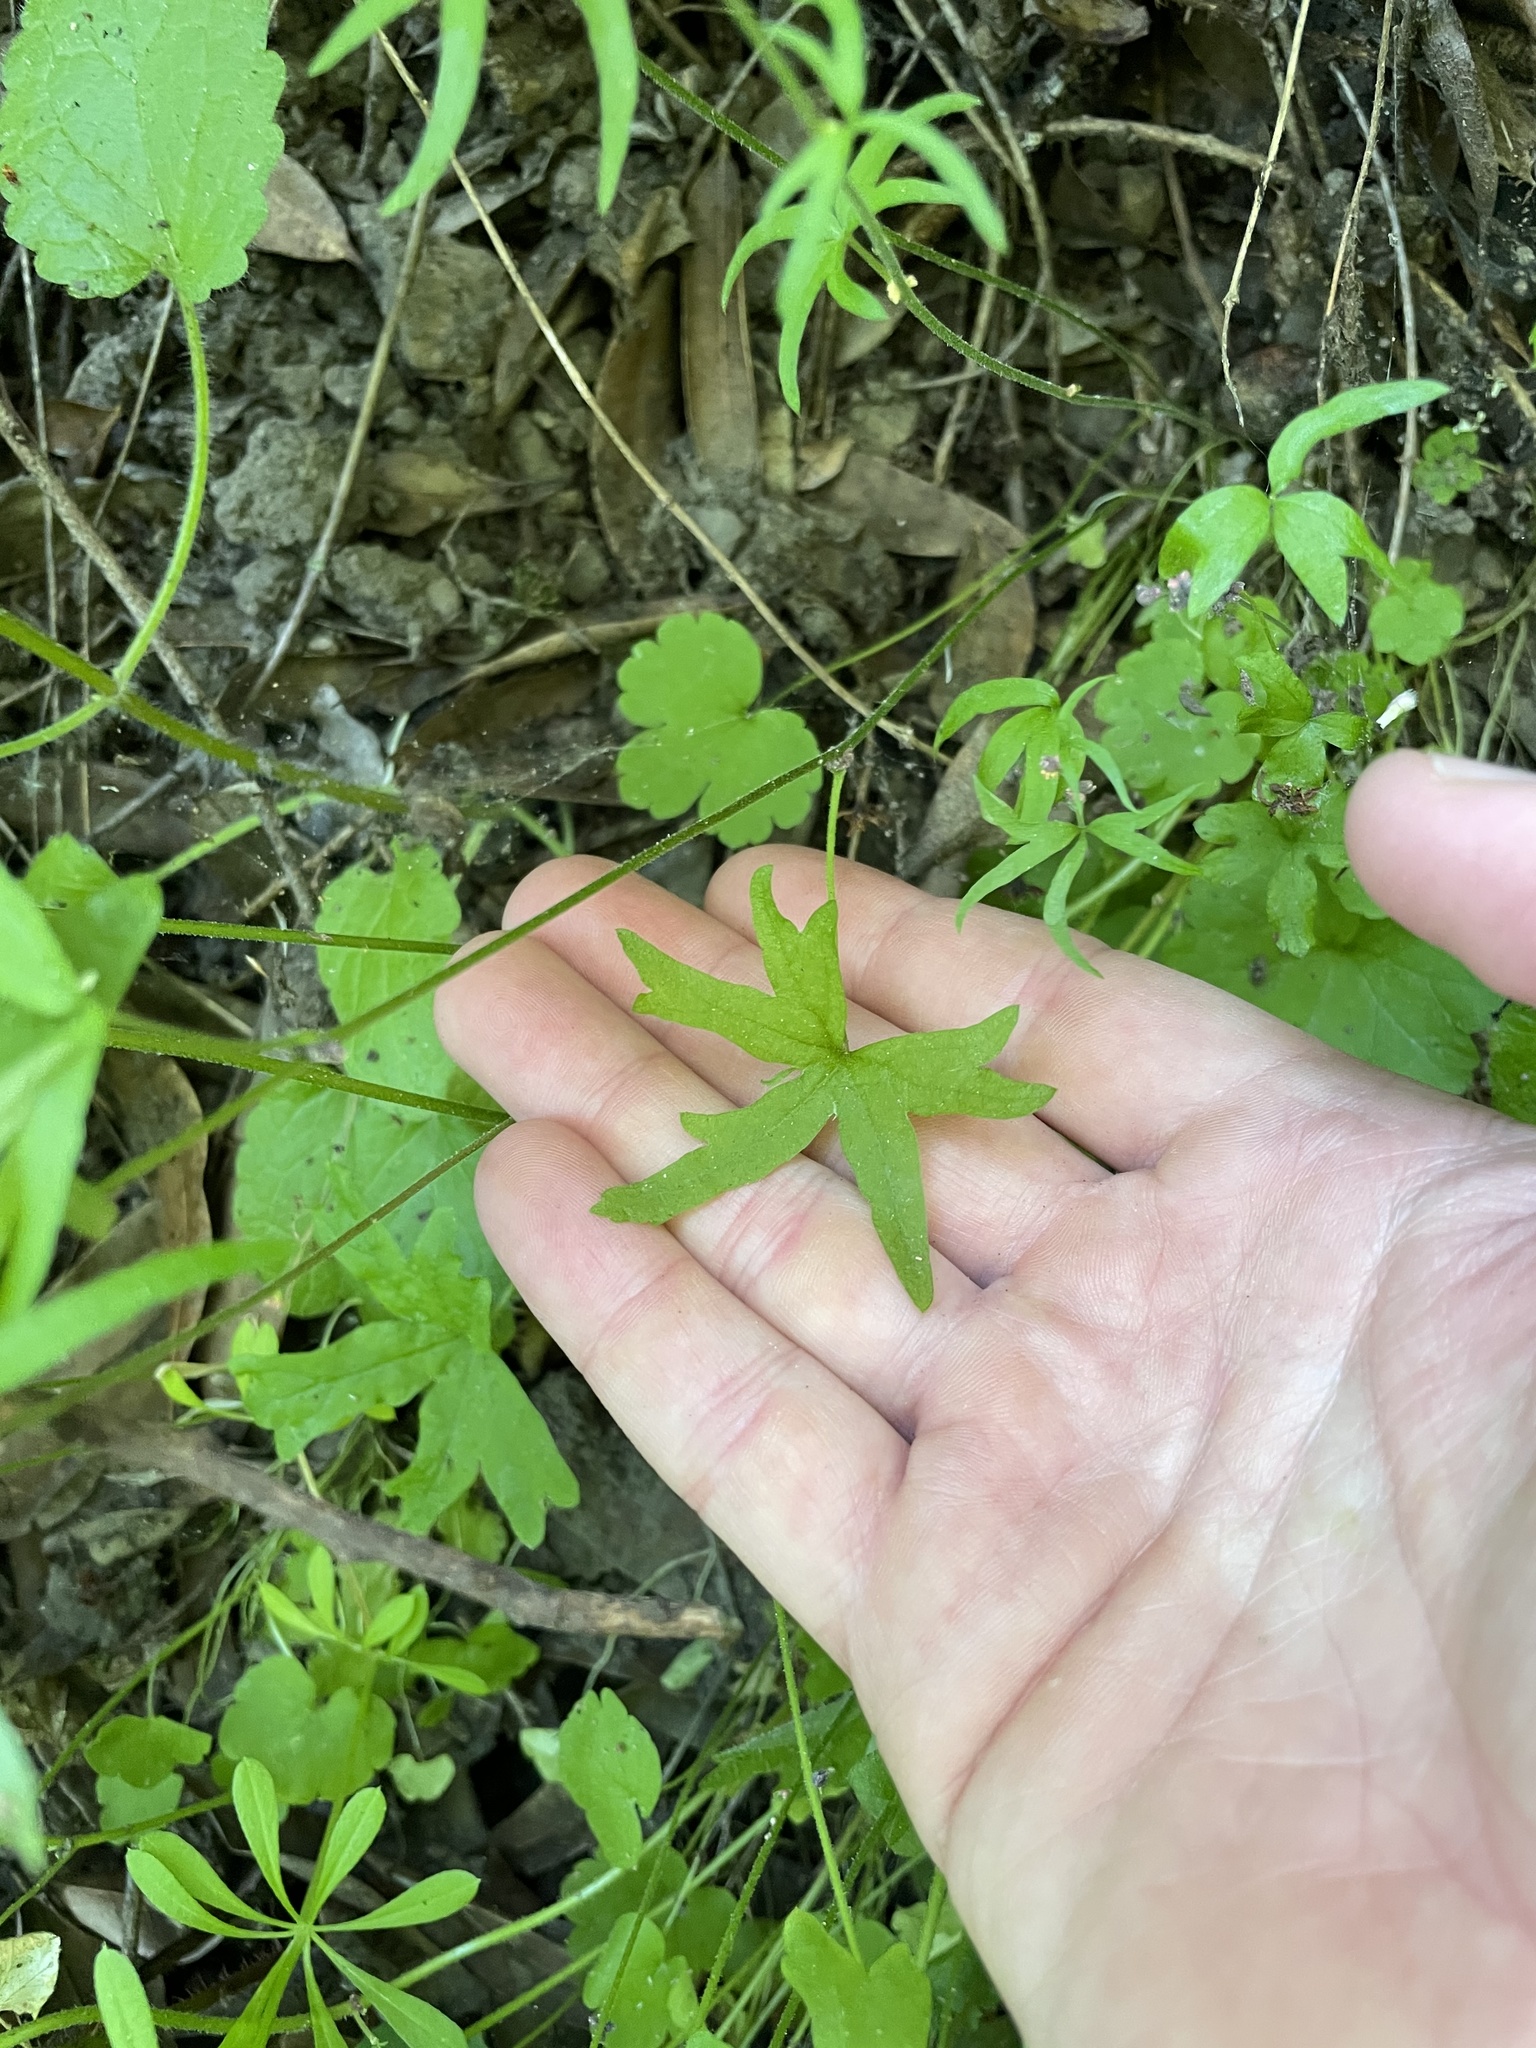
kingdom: Plantae
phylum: Tracheophyta
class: Magnoliopsida
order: Saxifragales
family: Saxifragaceae
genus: Lithophragma
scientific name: Lithophragma heterophyllum
